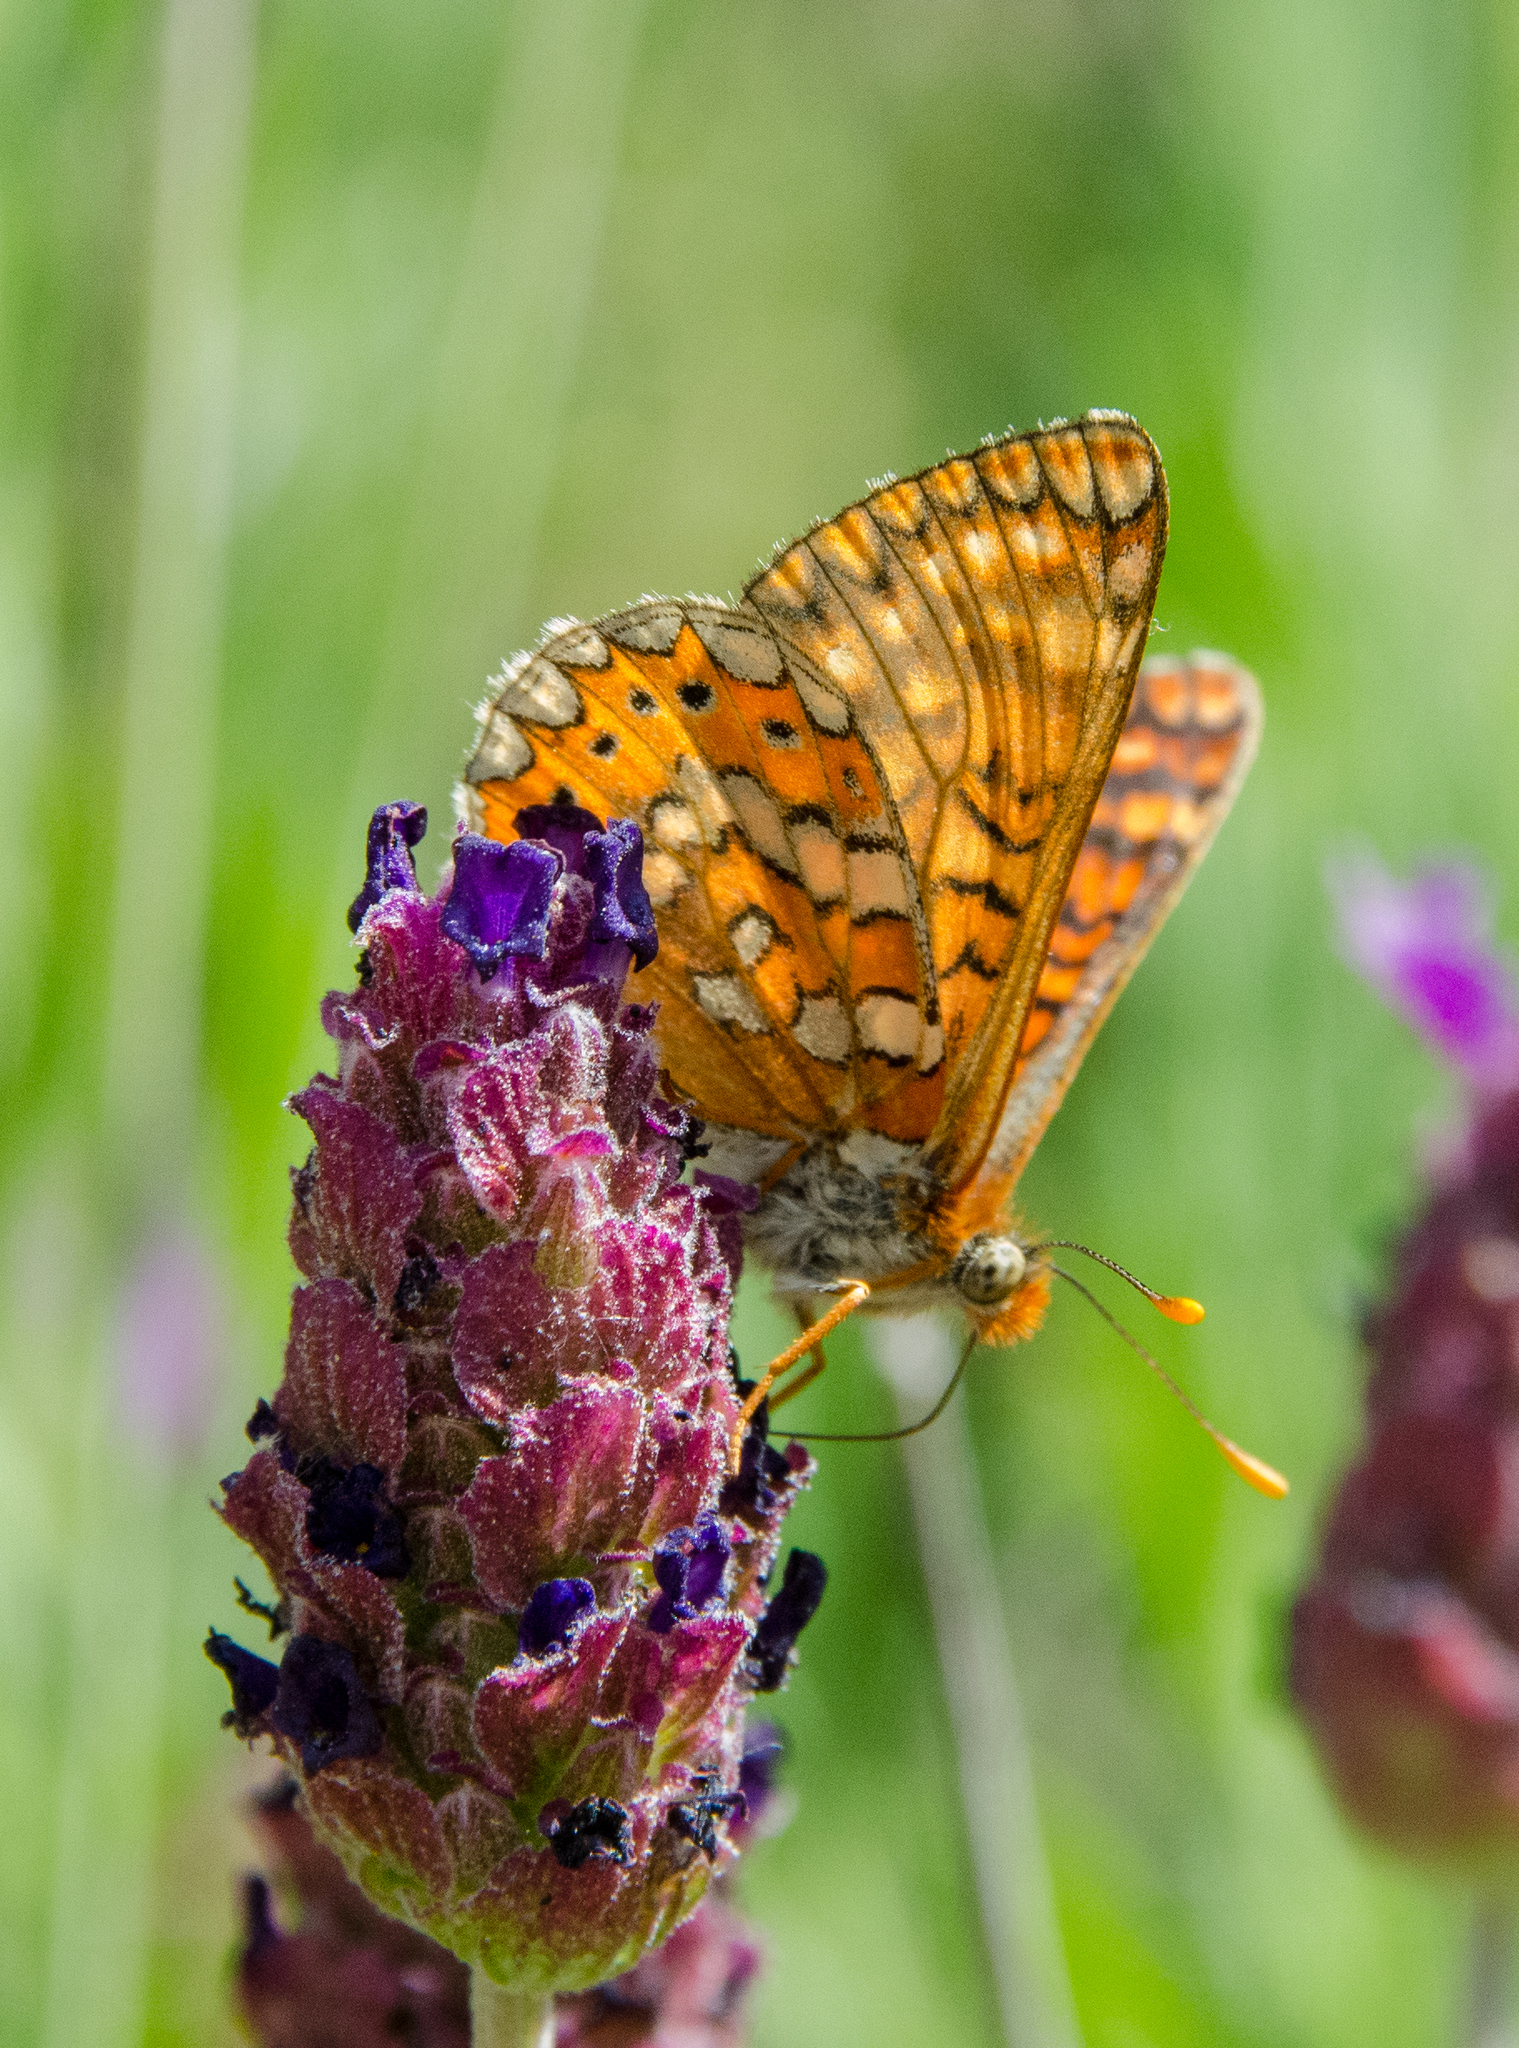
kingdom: Animalia
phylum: Arthropoda
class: Insecta
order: Lepidoptera
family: Nymphalidae
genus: Euphydryas
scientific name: Euphydryas aurinia
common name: Marsh fritillary
